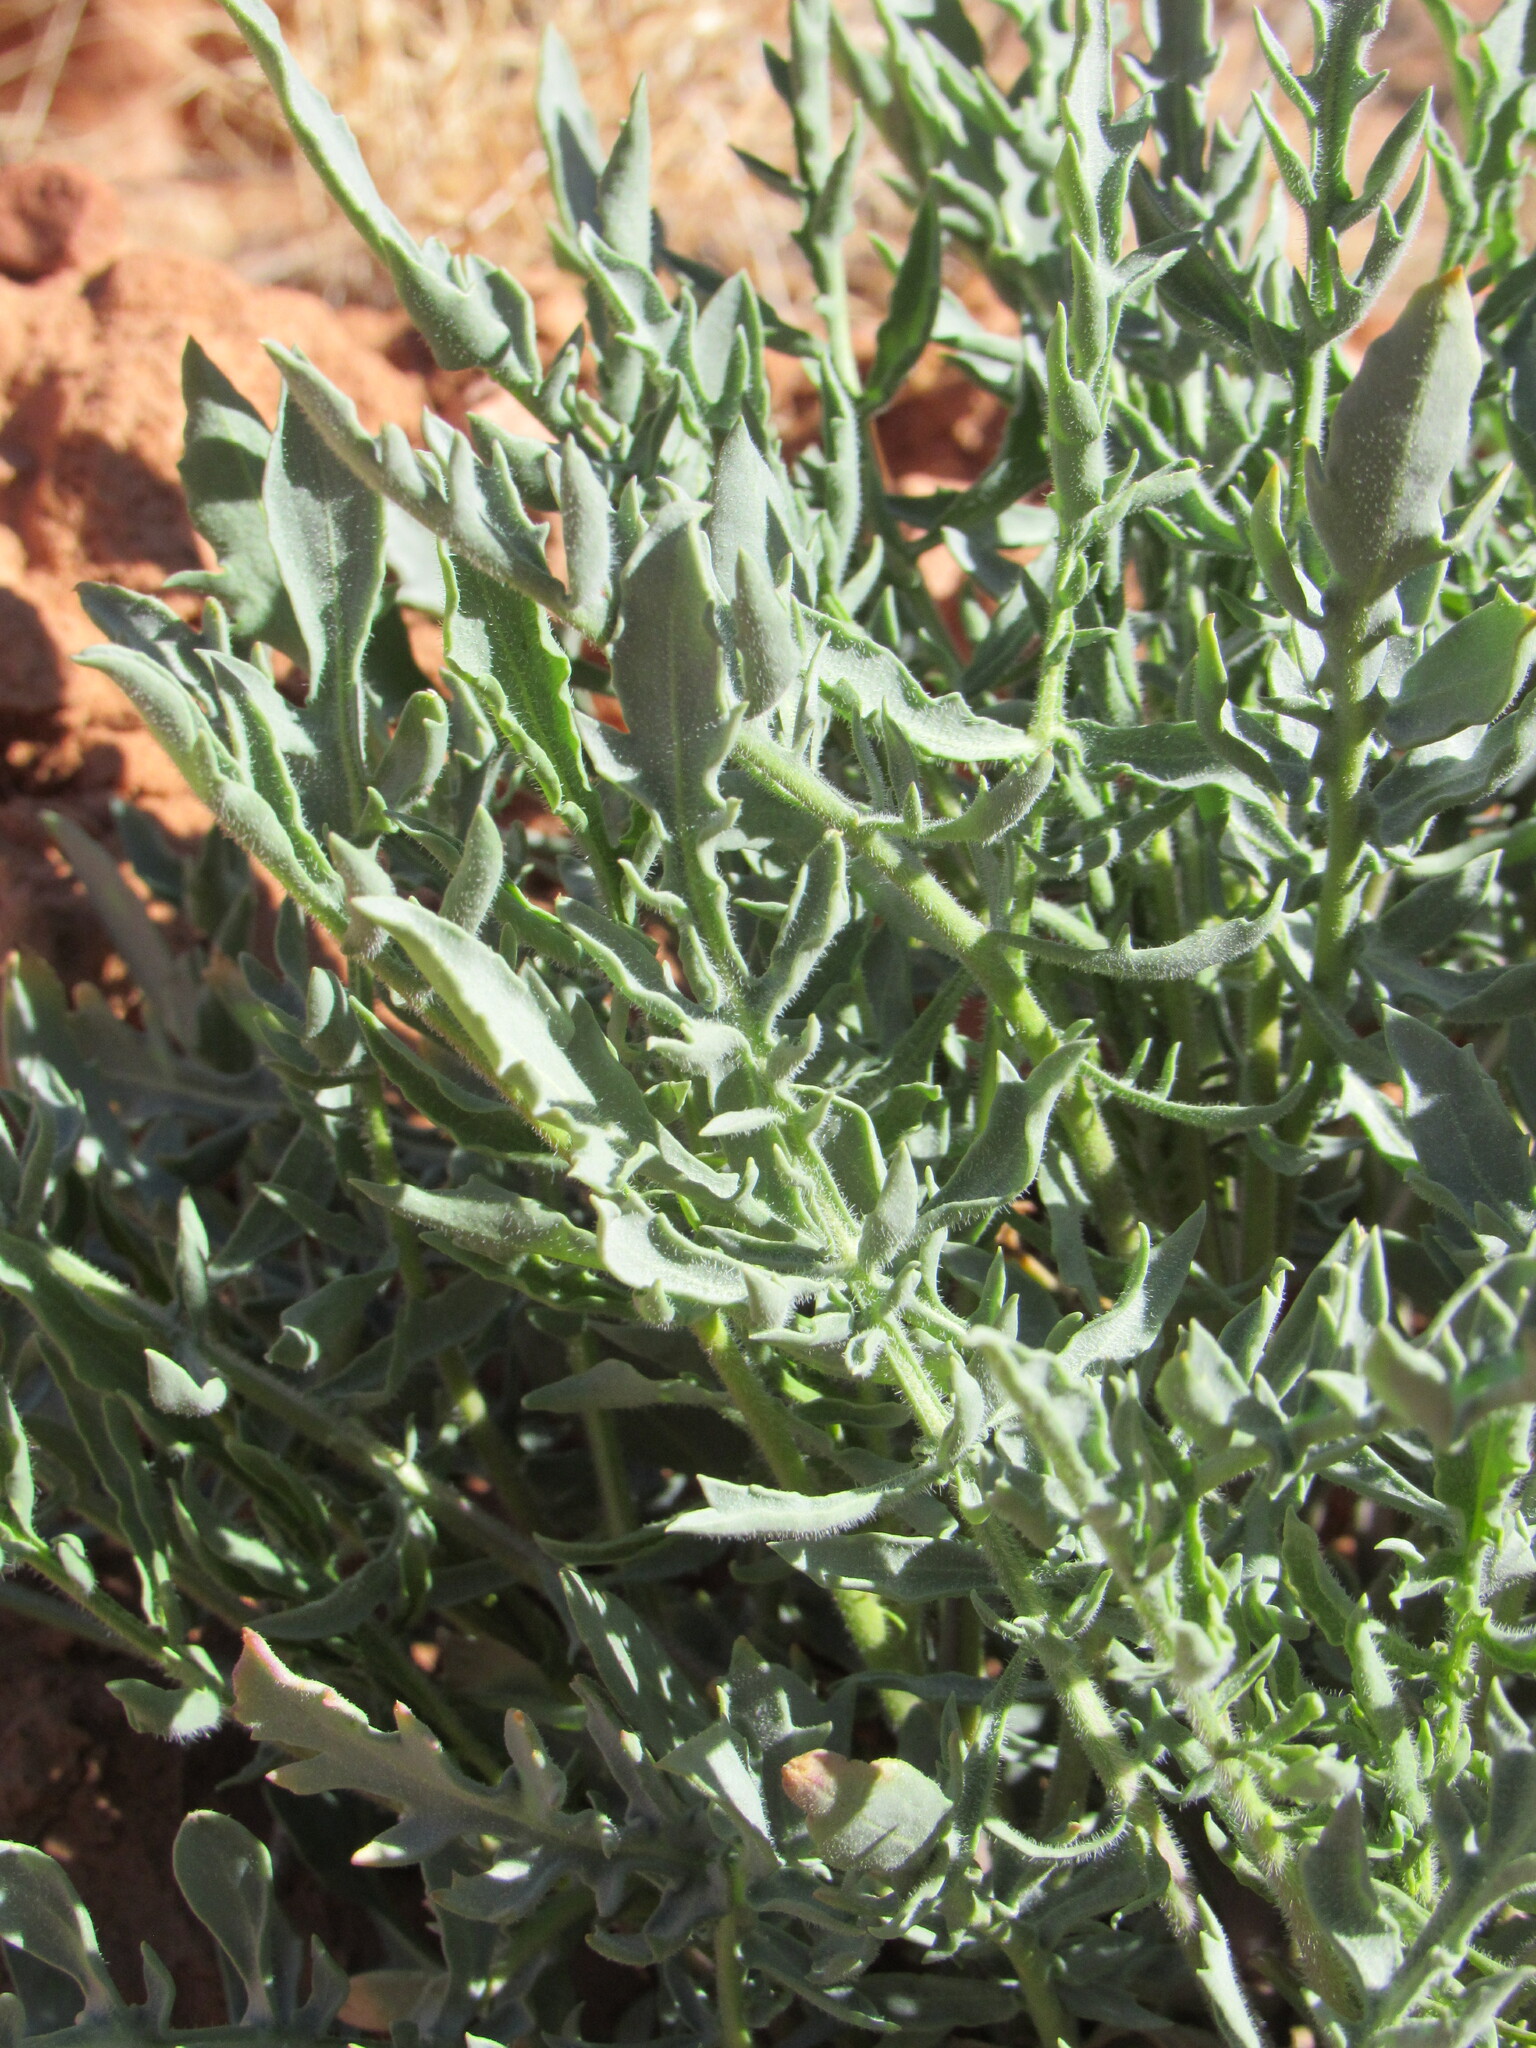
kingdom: Plantae
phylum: Tracheophyta
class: Magnoliopsida
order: Brassicales
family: Brassicaceae
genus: Stanleya
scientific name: Stanleya pinnata
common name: Prince's-plume
